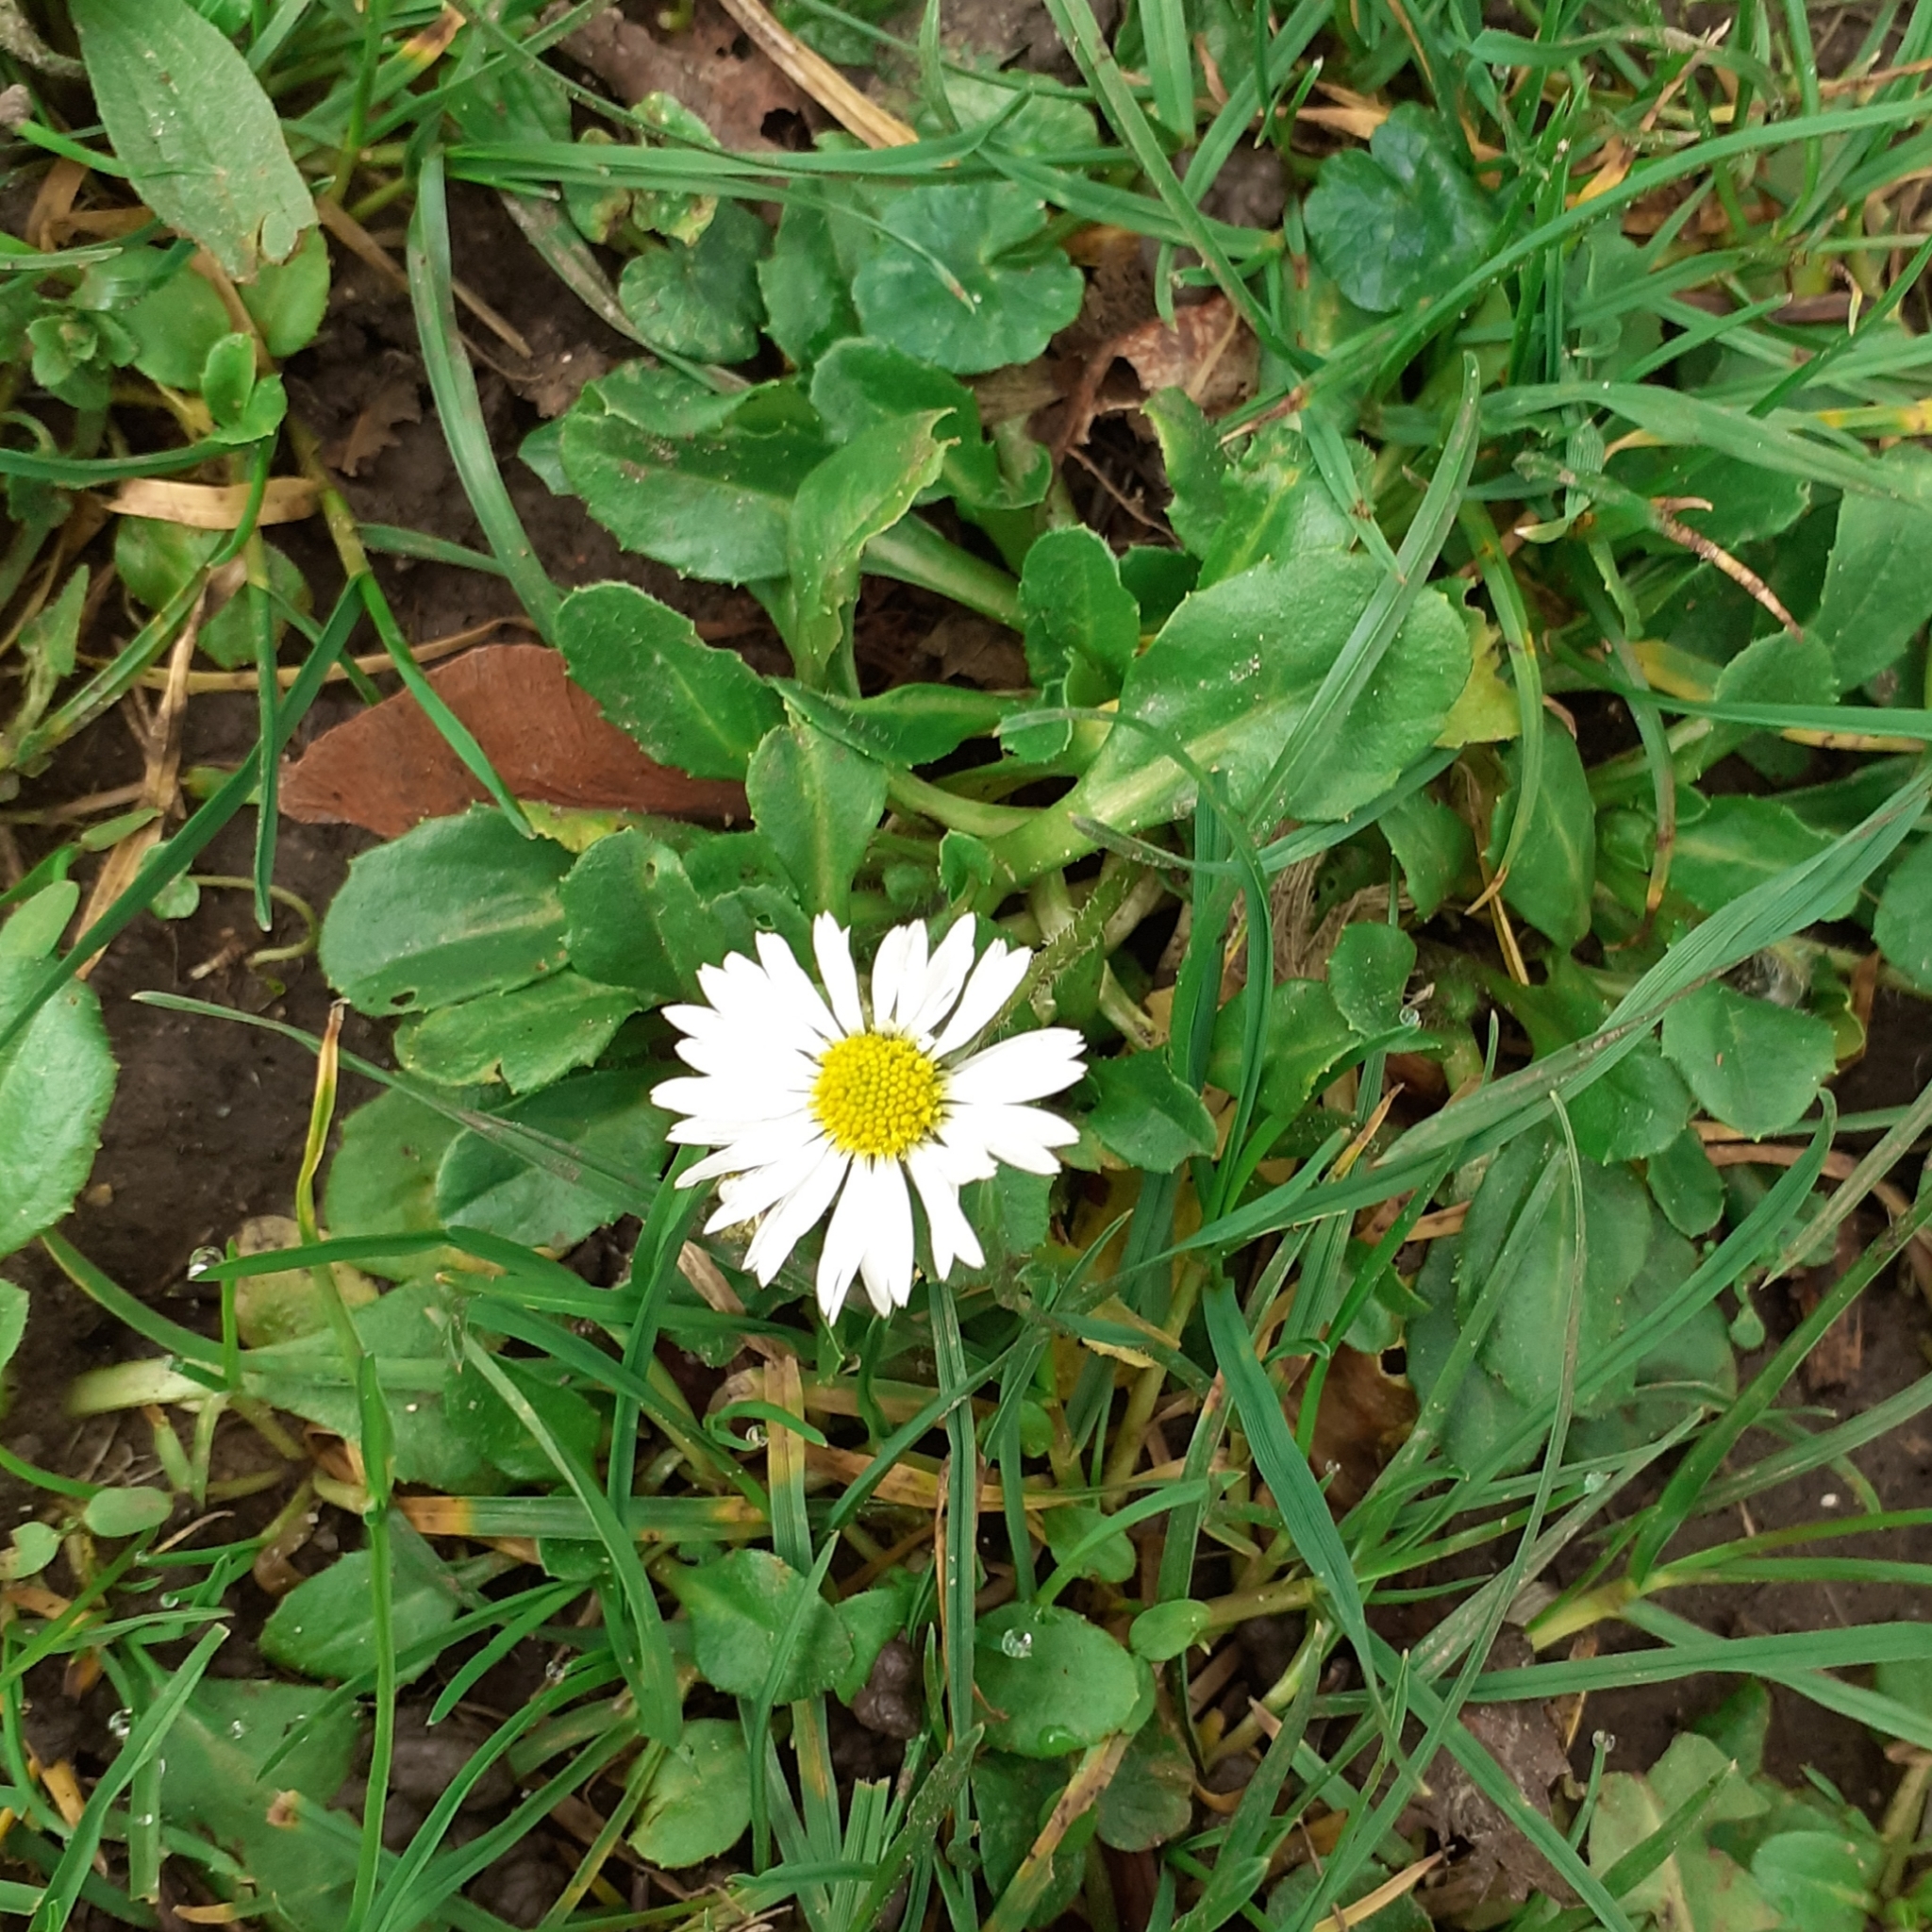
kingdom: Plantae
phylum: Tracheophyta
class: Magnoliopsida
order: Asterales
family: Asteraceae
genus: Bellis
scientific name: Bellis perennis
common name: Lawndaisy
